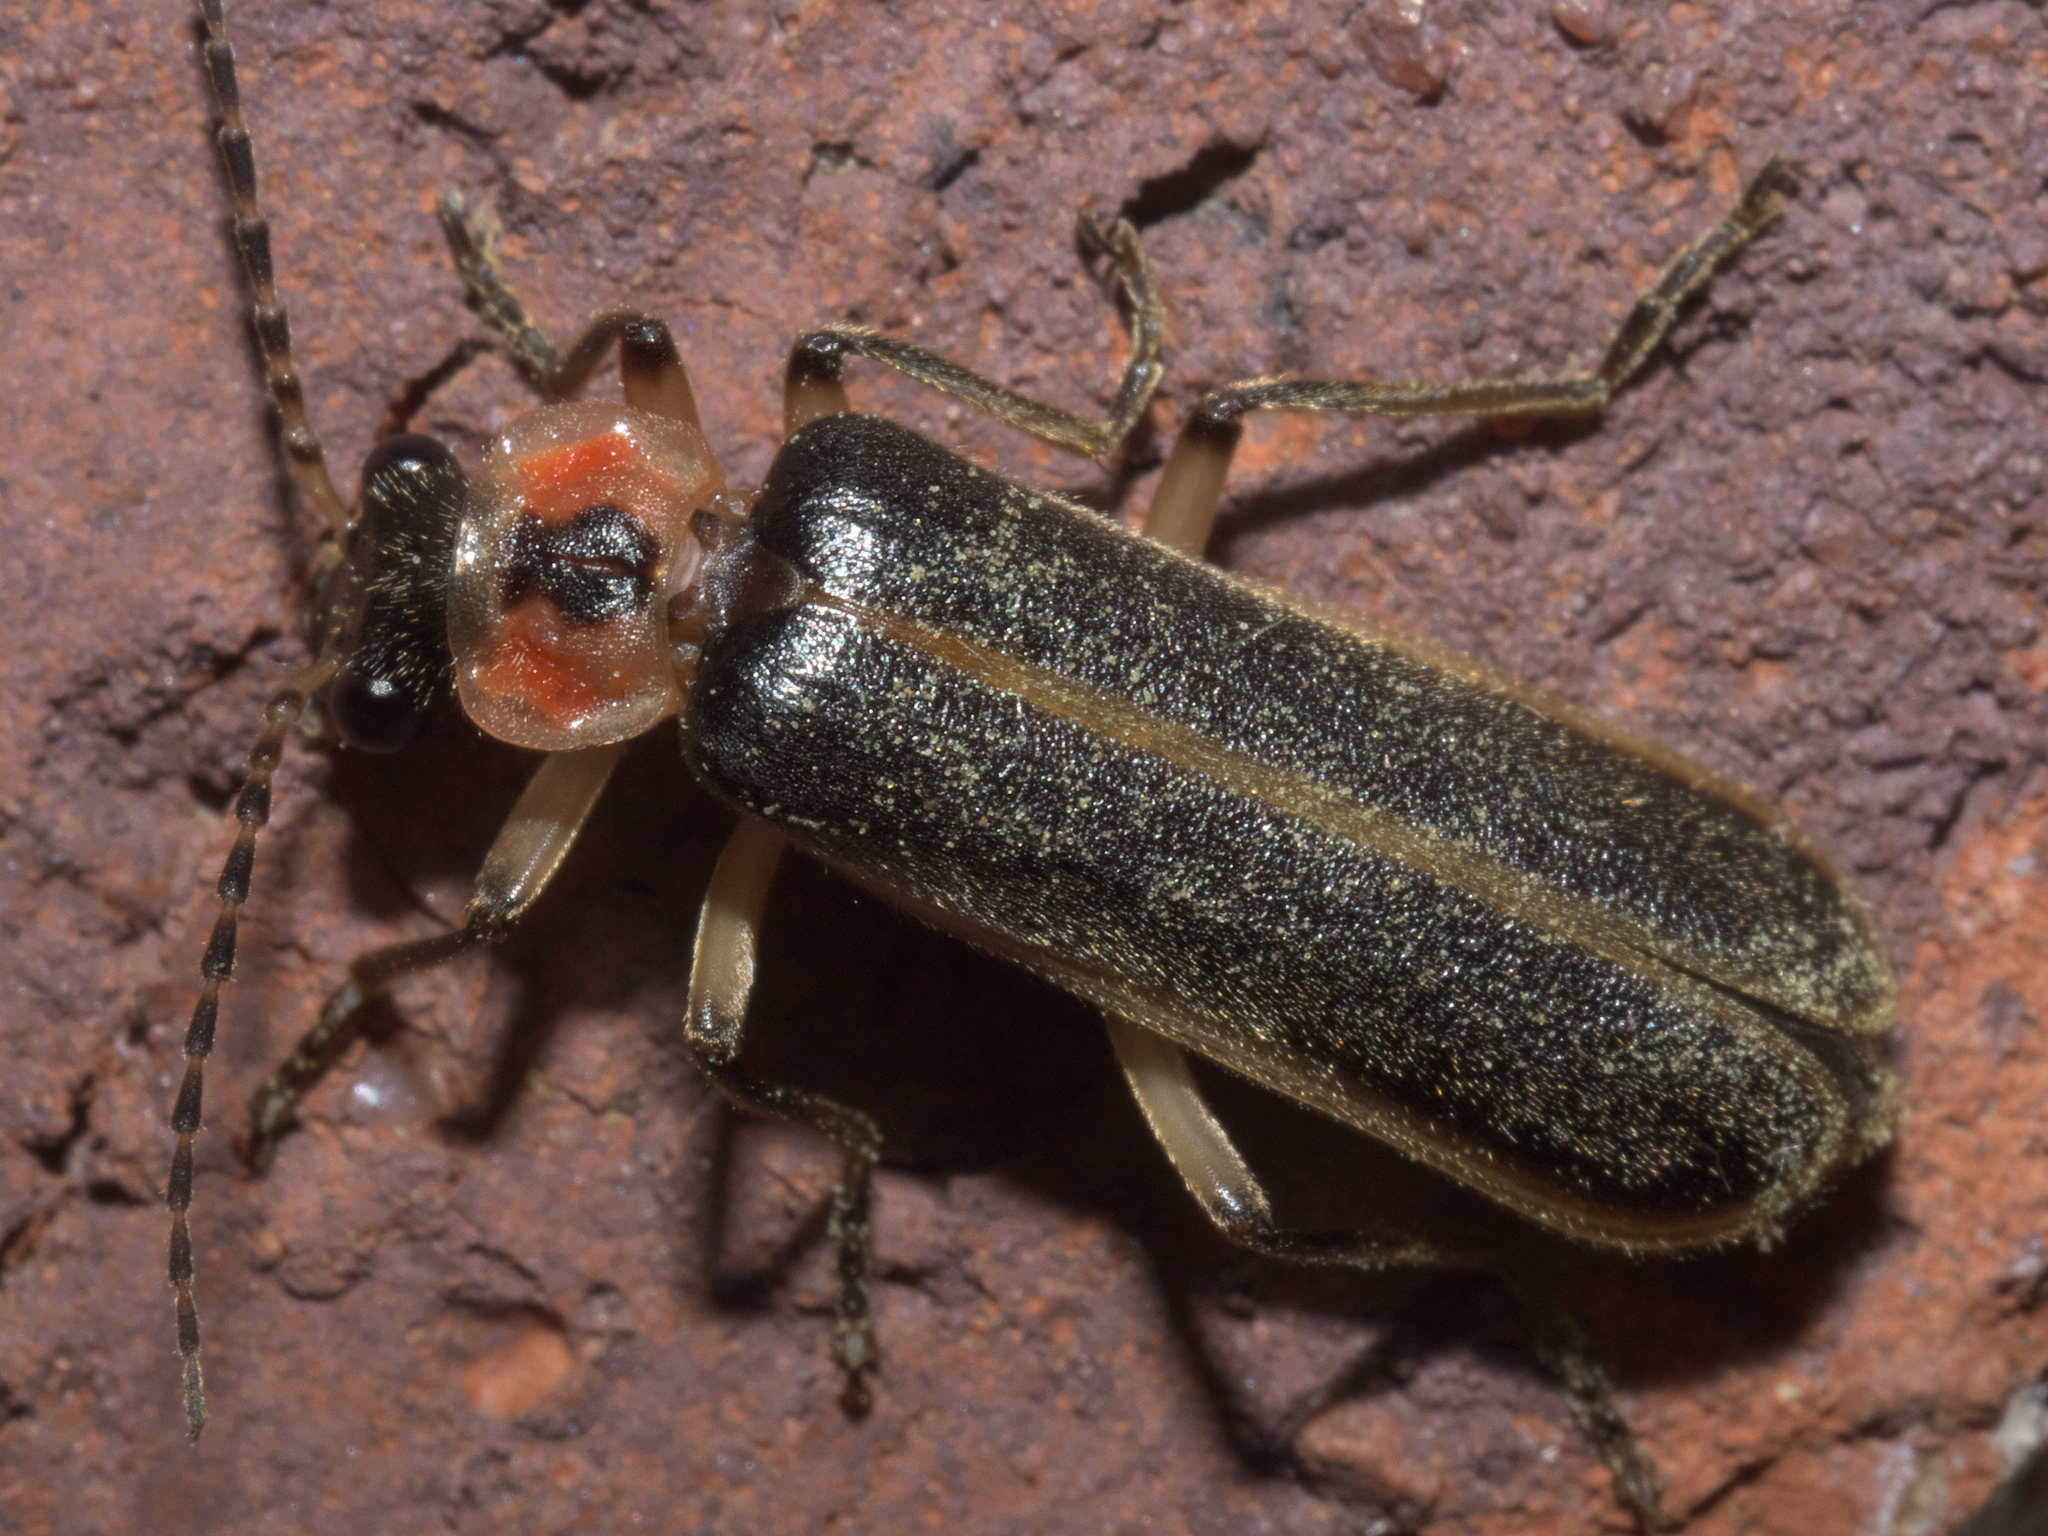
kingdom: Animalia
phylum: Arthropoda
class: Insecta
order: Coleoptera
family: Cantharidae
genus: Podabrus
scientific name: Podabrus basilaris
